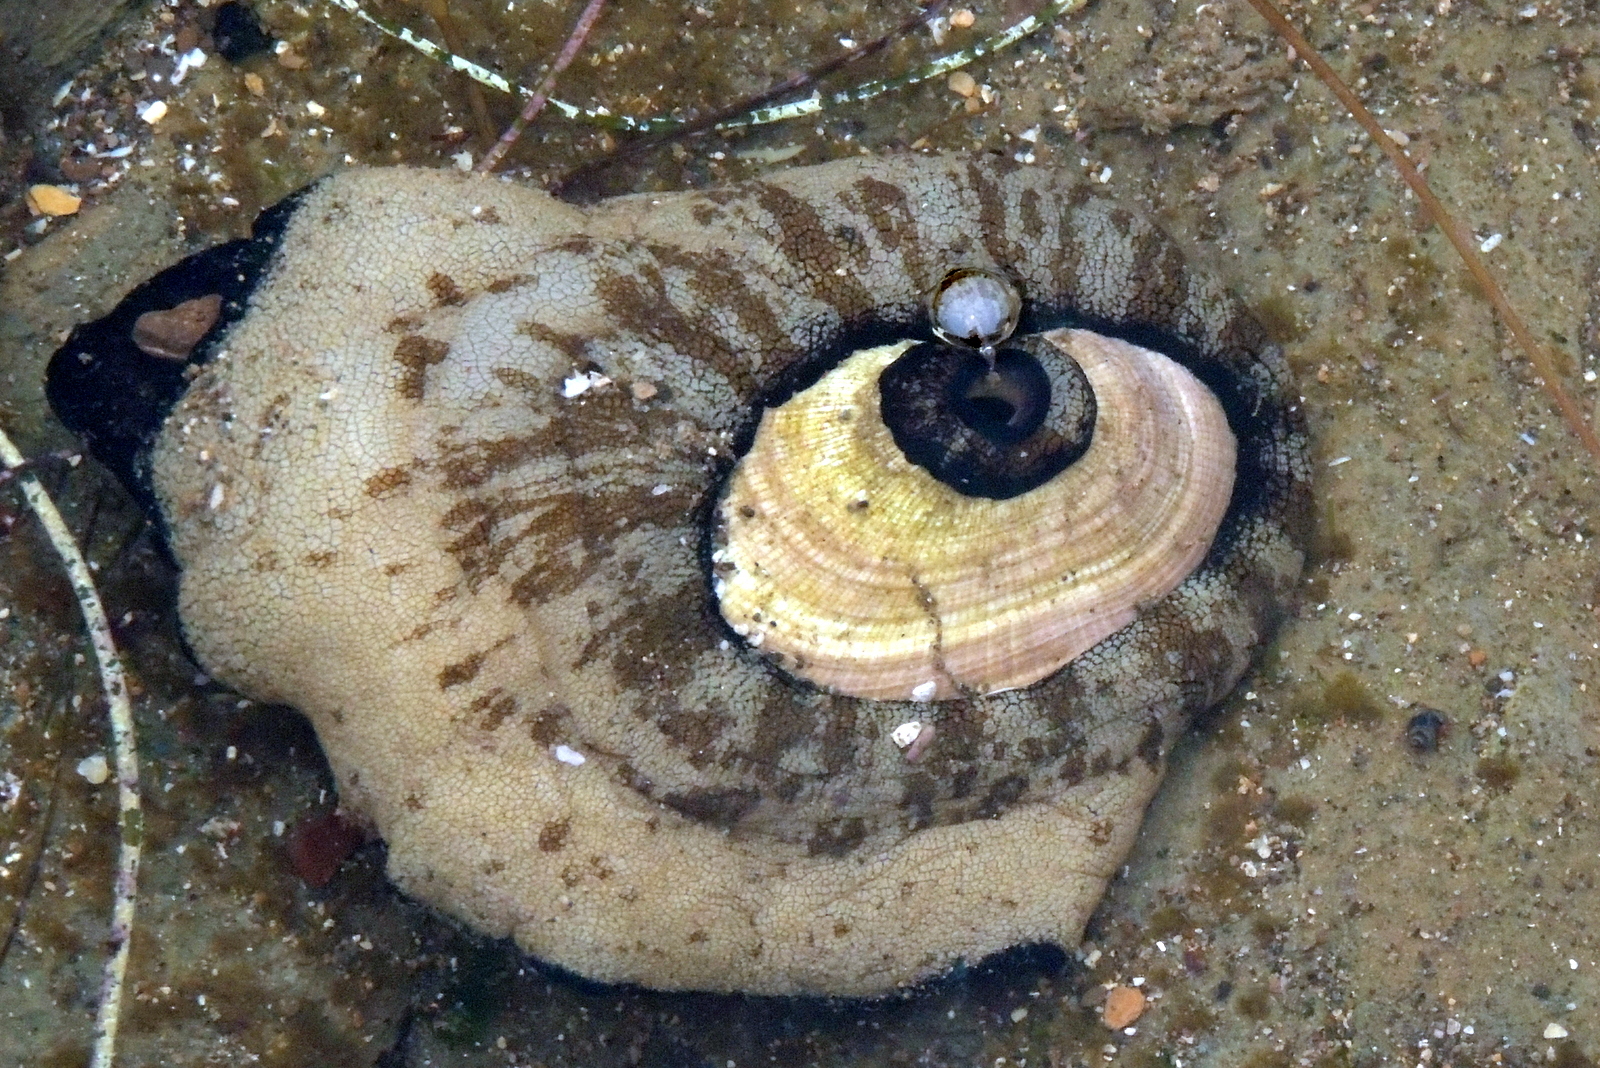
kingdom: Animalia
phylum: Mollusca
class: Gastropoda
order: Lepetellida
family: Fissurellidae
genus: Megathura
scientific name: Megathura crenulata
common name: Giant keyhole limpet
